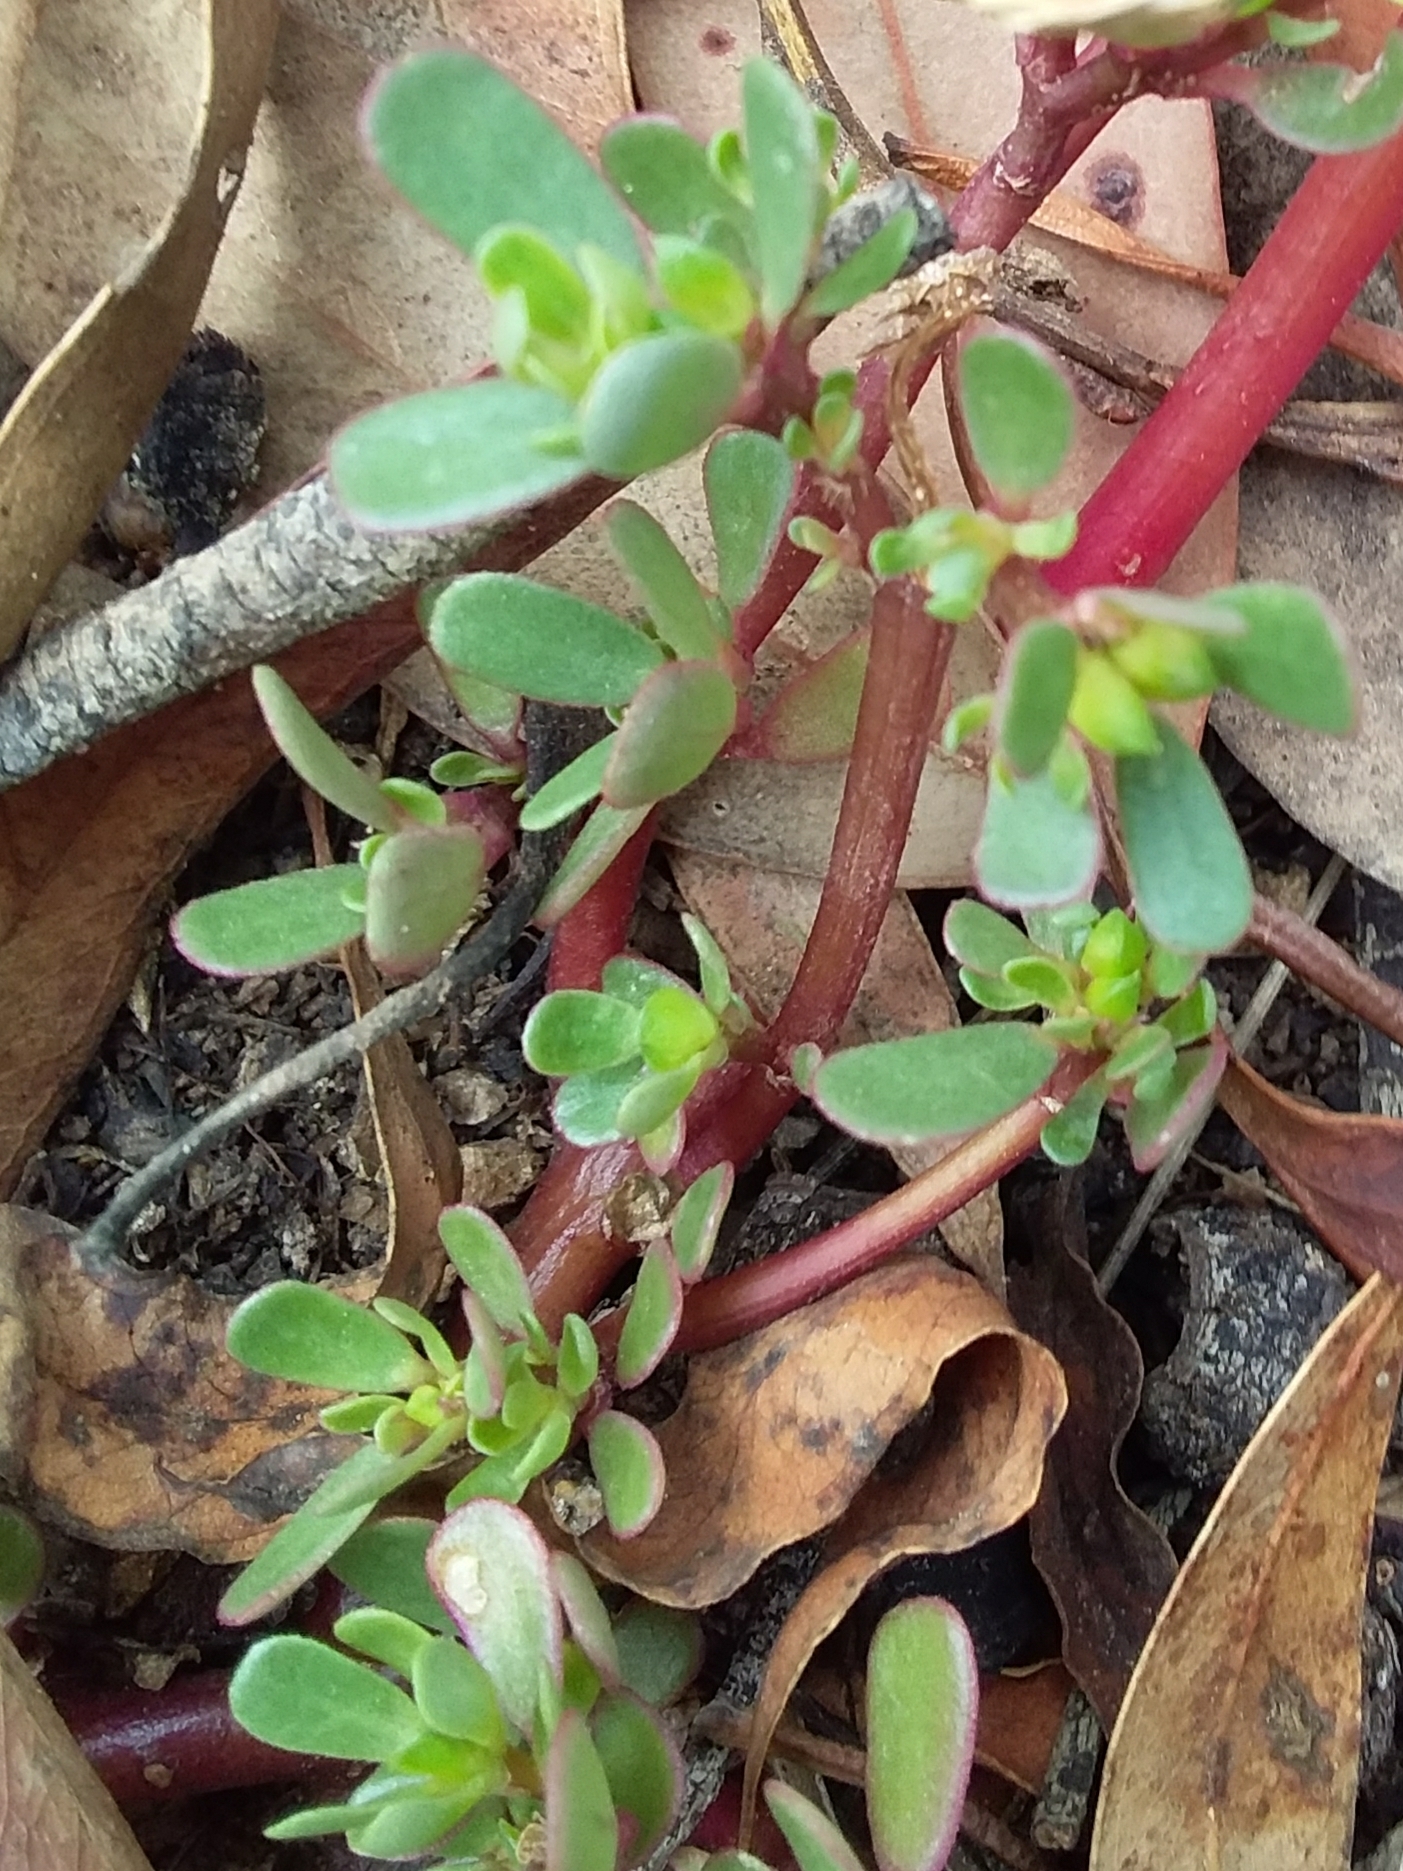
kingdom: Plantae
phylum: Tracheophyta
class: Magnoliopsida
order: Caryophyllales
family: Portulacaceae
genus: Portulaca
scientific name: Portulaca oleracea
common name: Common purslane
